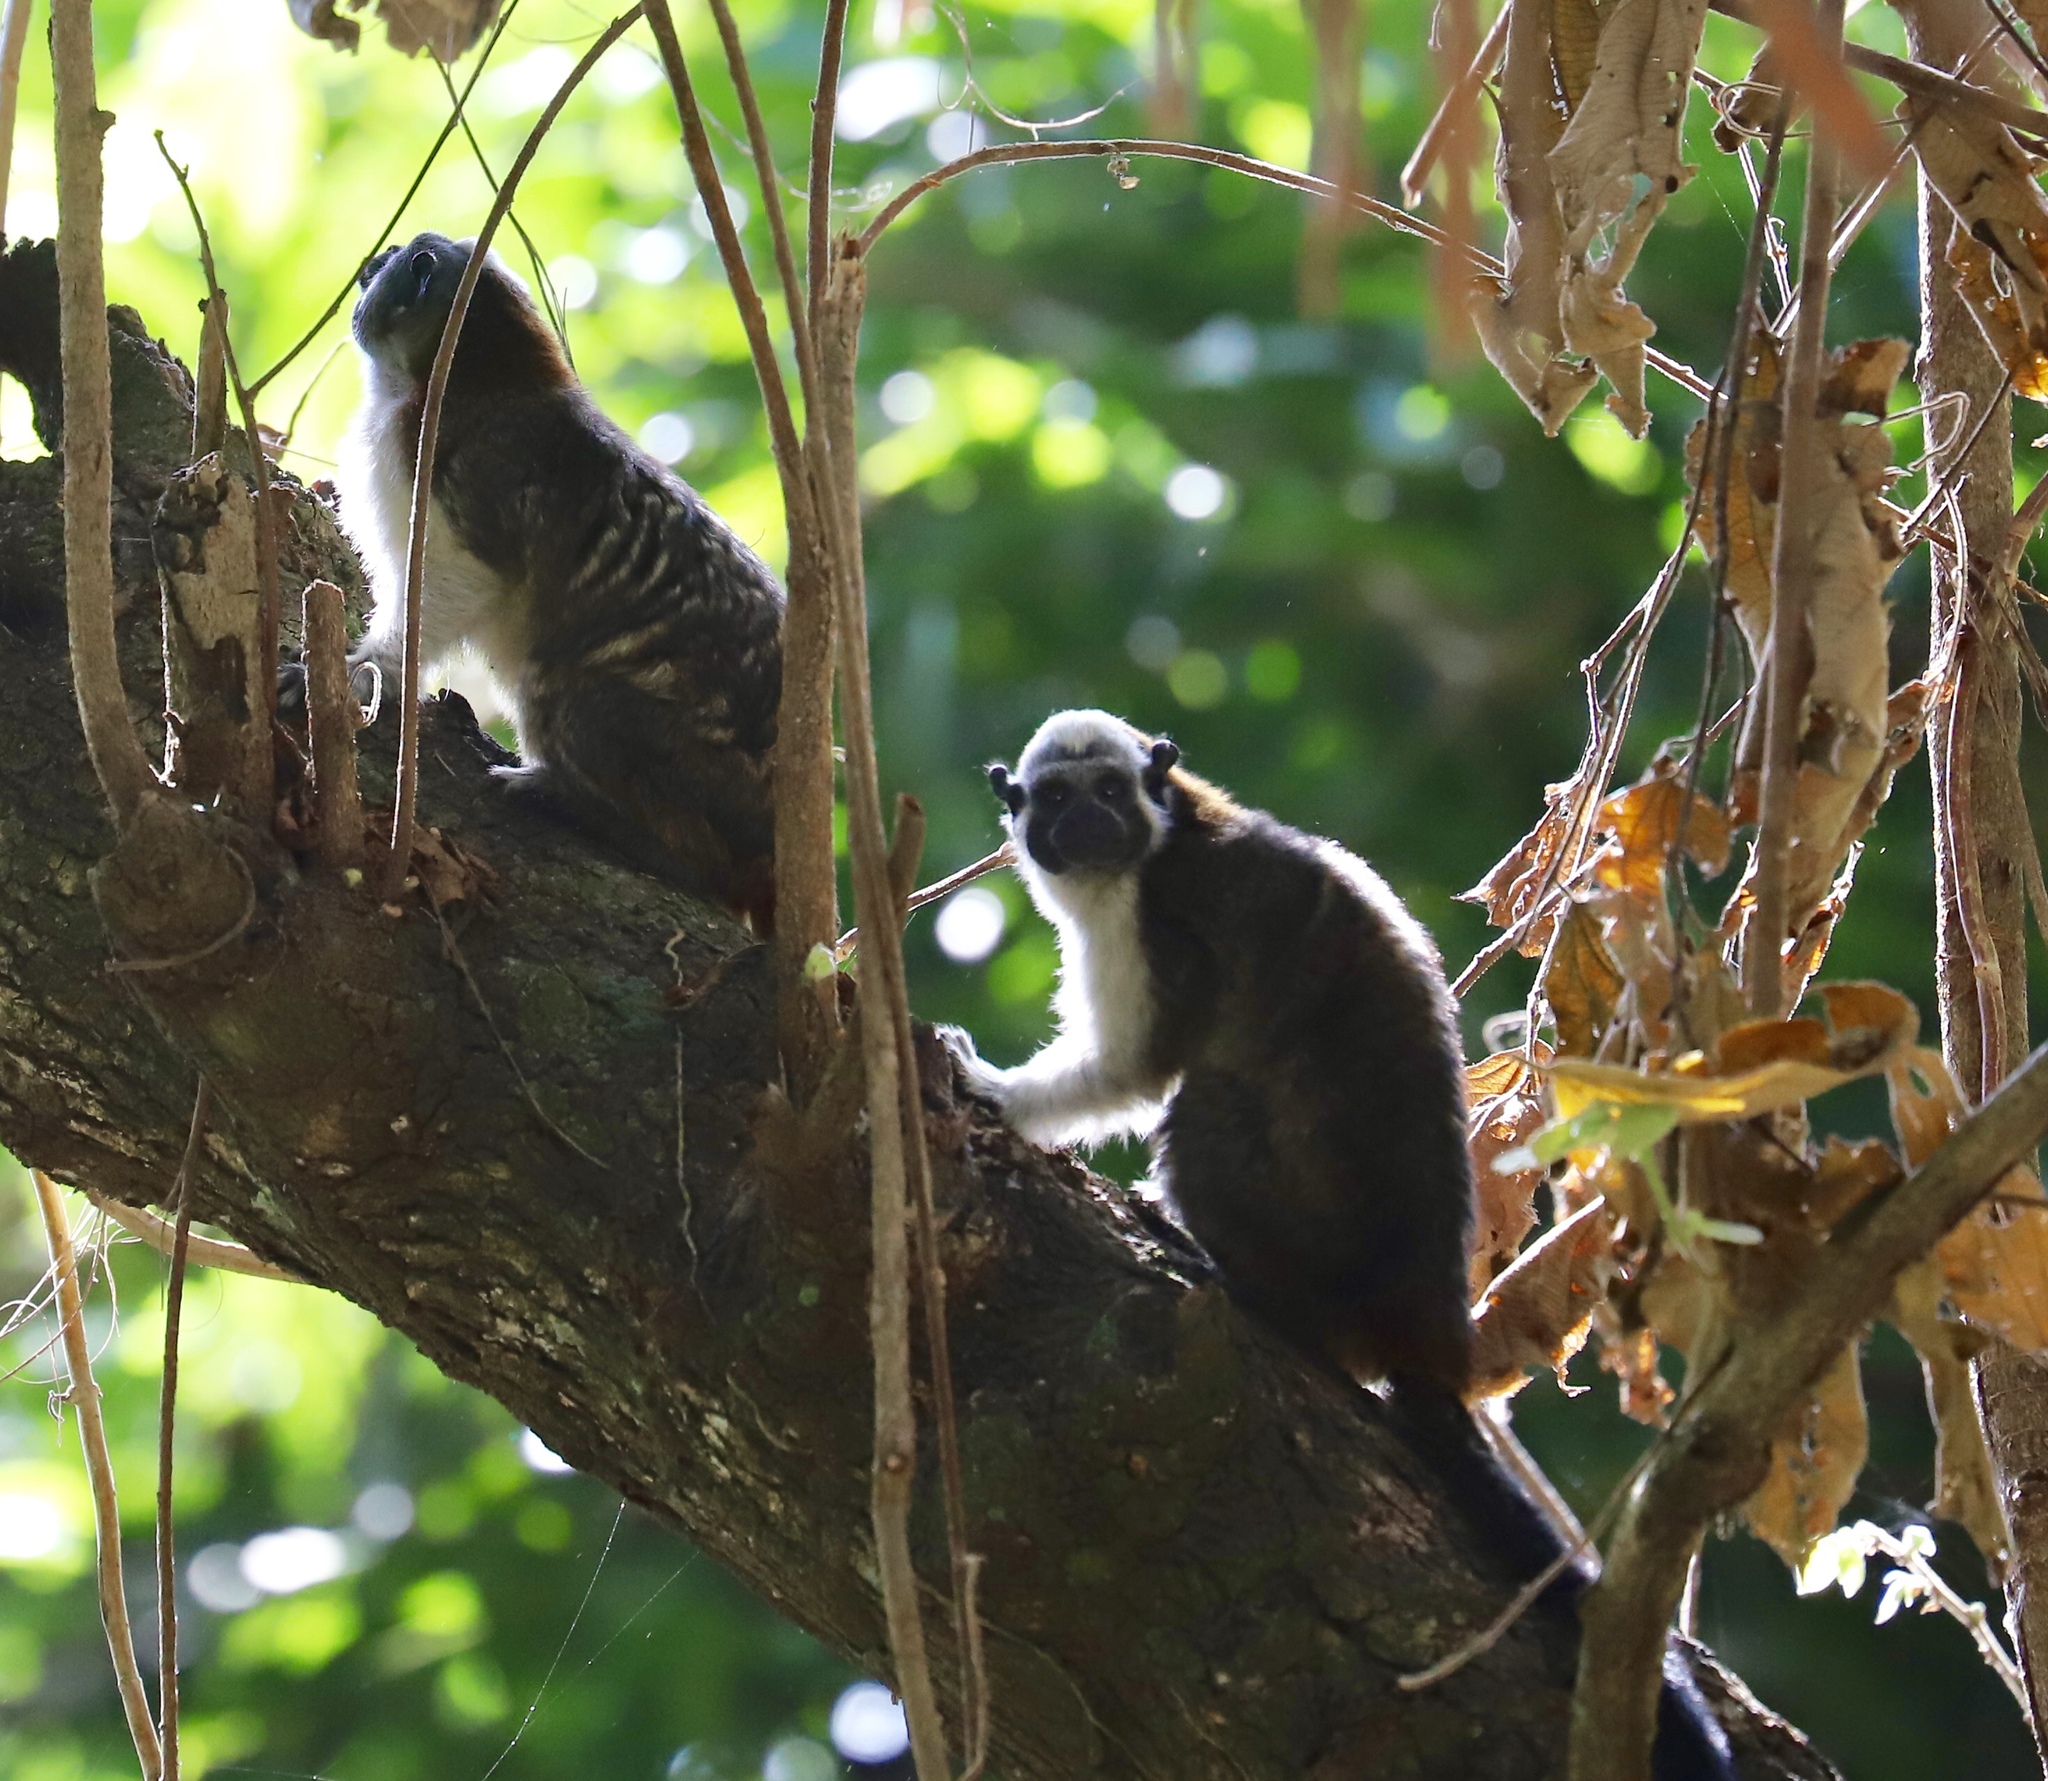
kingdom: Animalia
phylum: Chordata
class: Mammalia
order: Primates
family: Callitrichidae
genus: Saguinus
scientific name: Saguinus geoffroyi
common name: Geoffroy s tamarin
